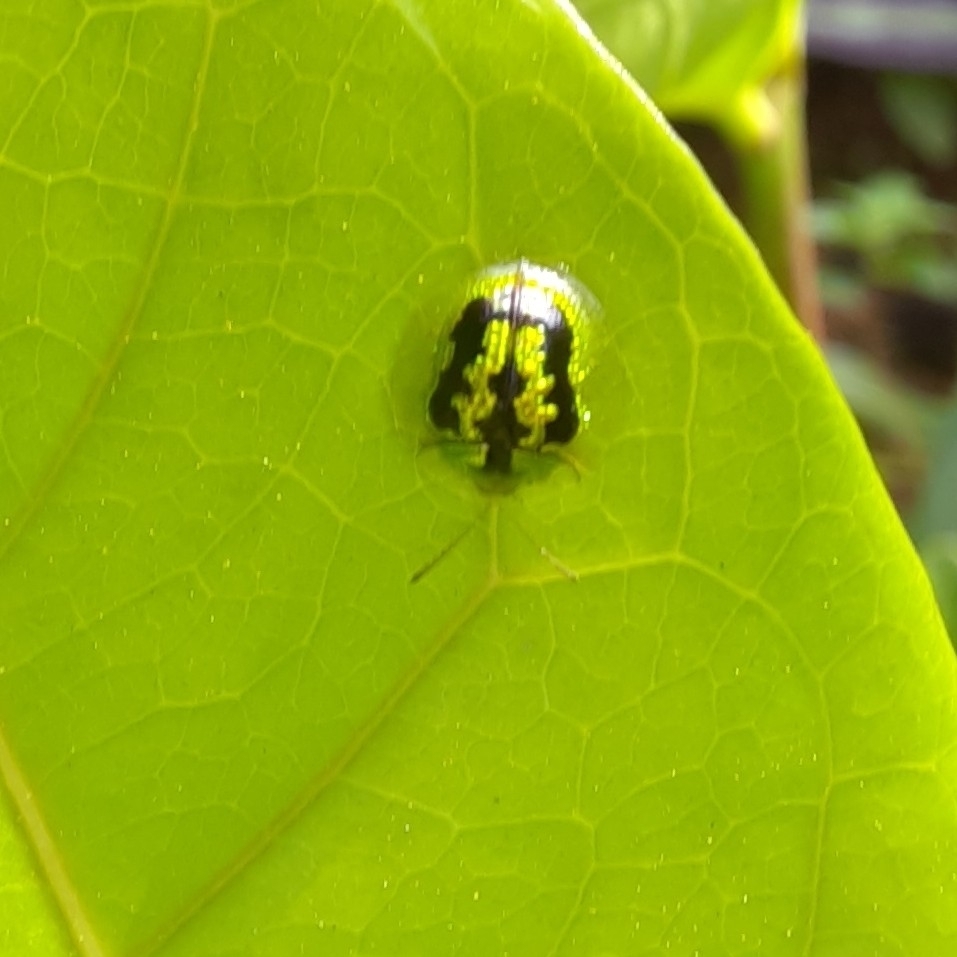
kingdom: Animalia
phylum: Arthropoda
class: Insecta
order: Coleoptera
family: Chrysomelidae
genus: Cassida
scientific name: Cassida circumdata
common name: Tortoise beetle
